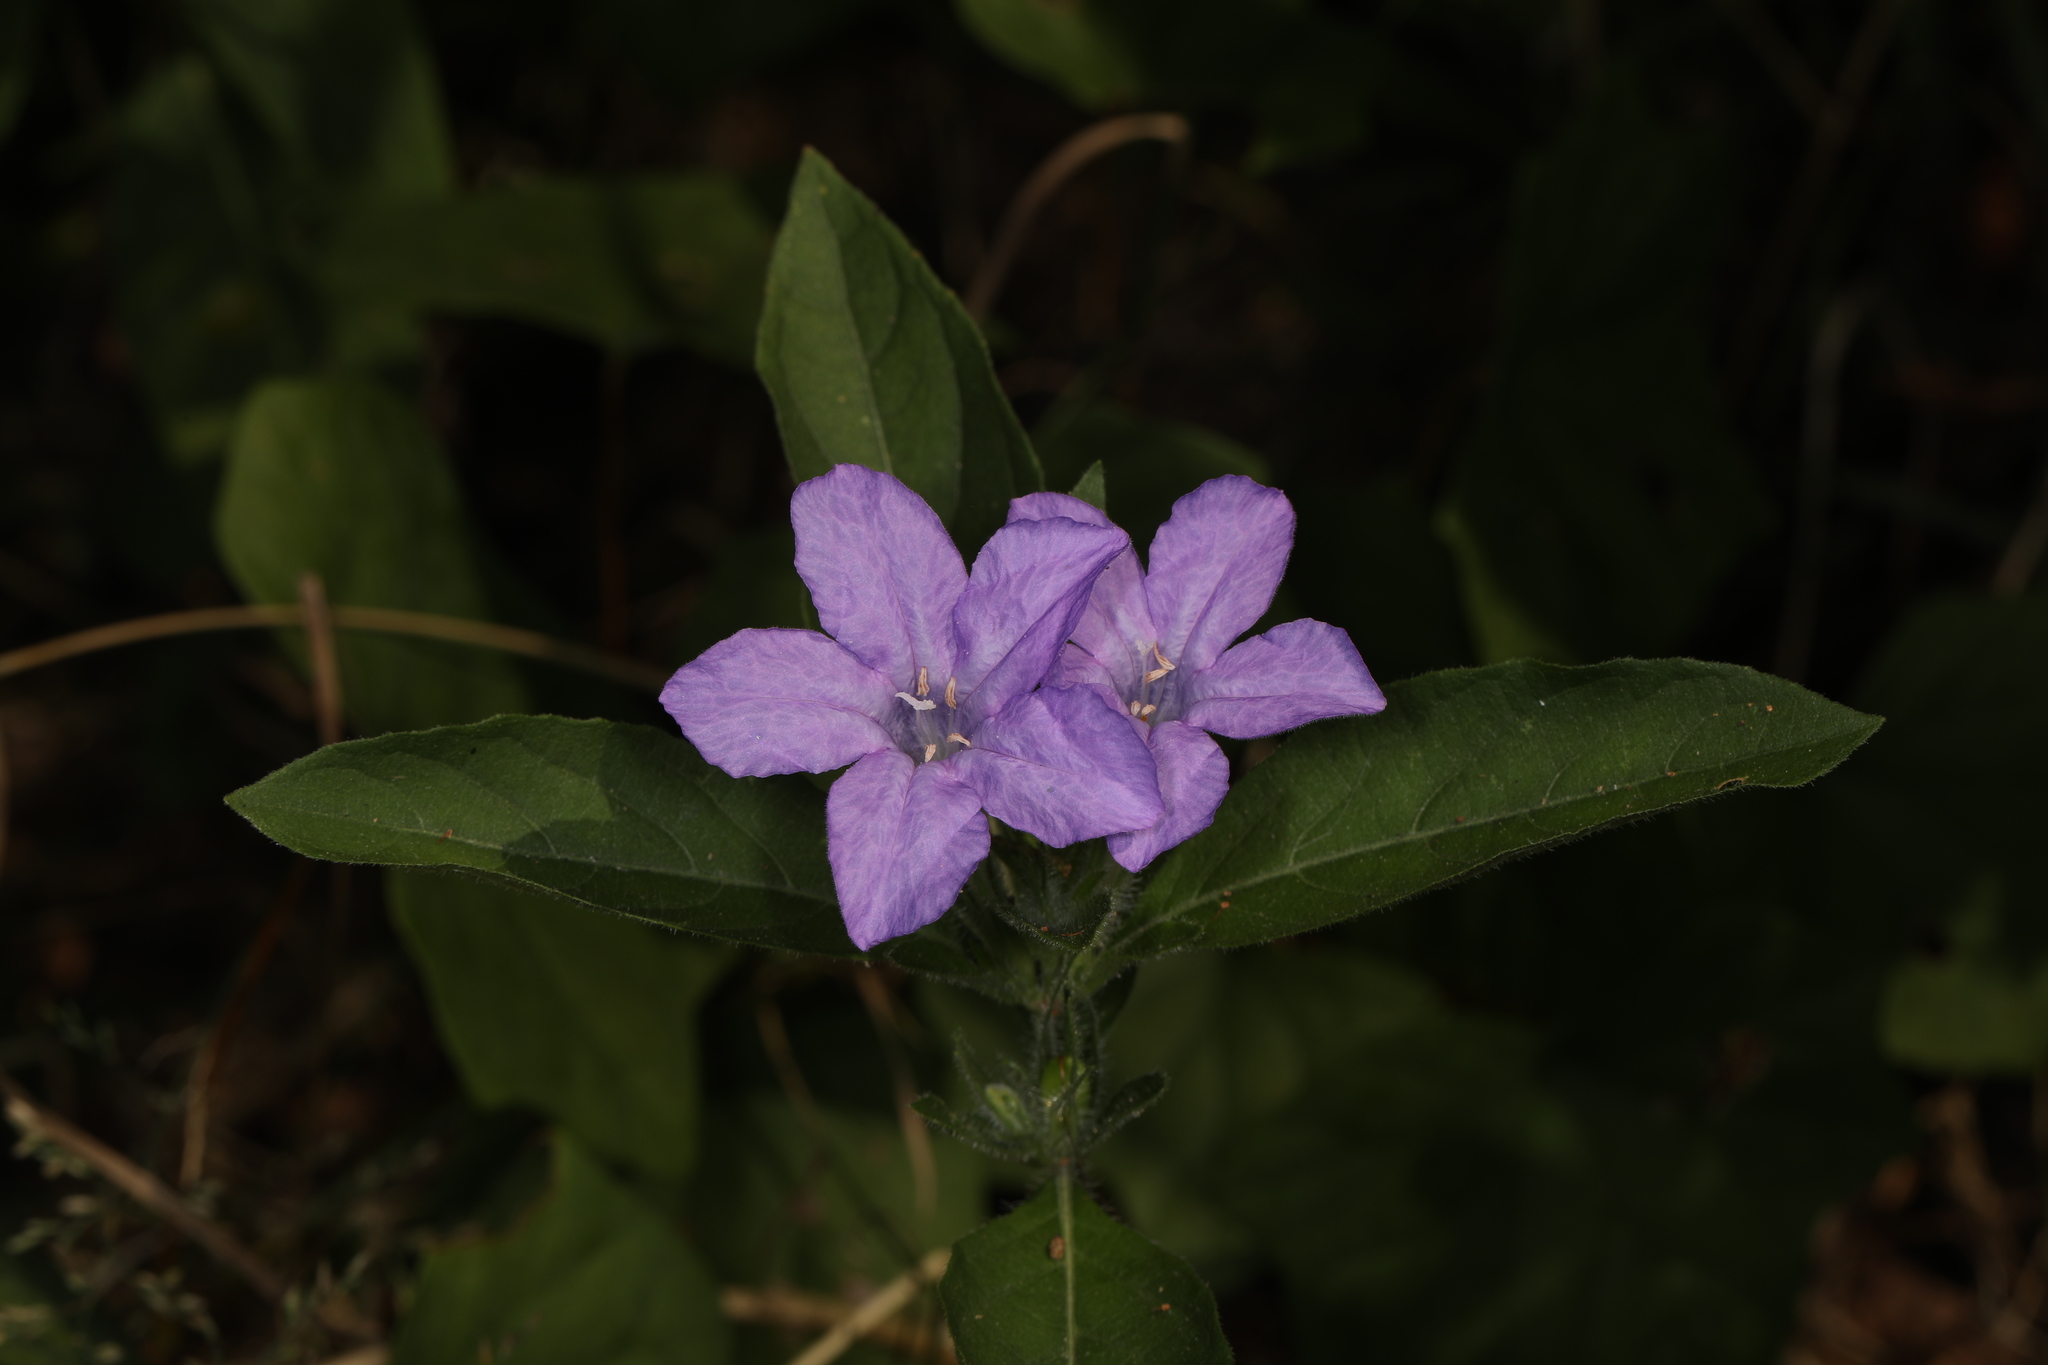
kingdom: Plantae
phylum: Tracheophyta
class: Magnoliopsida
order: Lamiales
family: Acanthaceae
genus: Ruellia
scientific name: Ruellia caroliniensis
